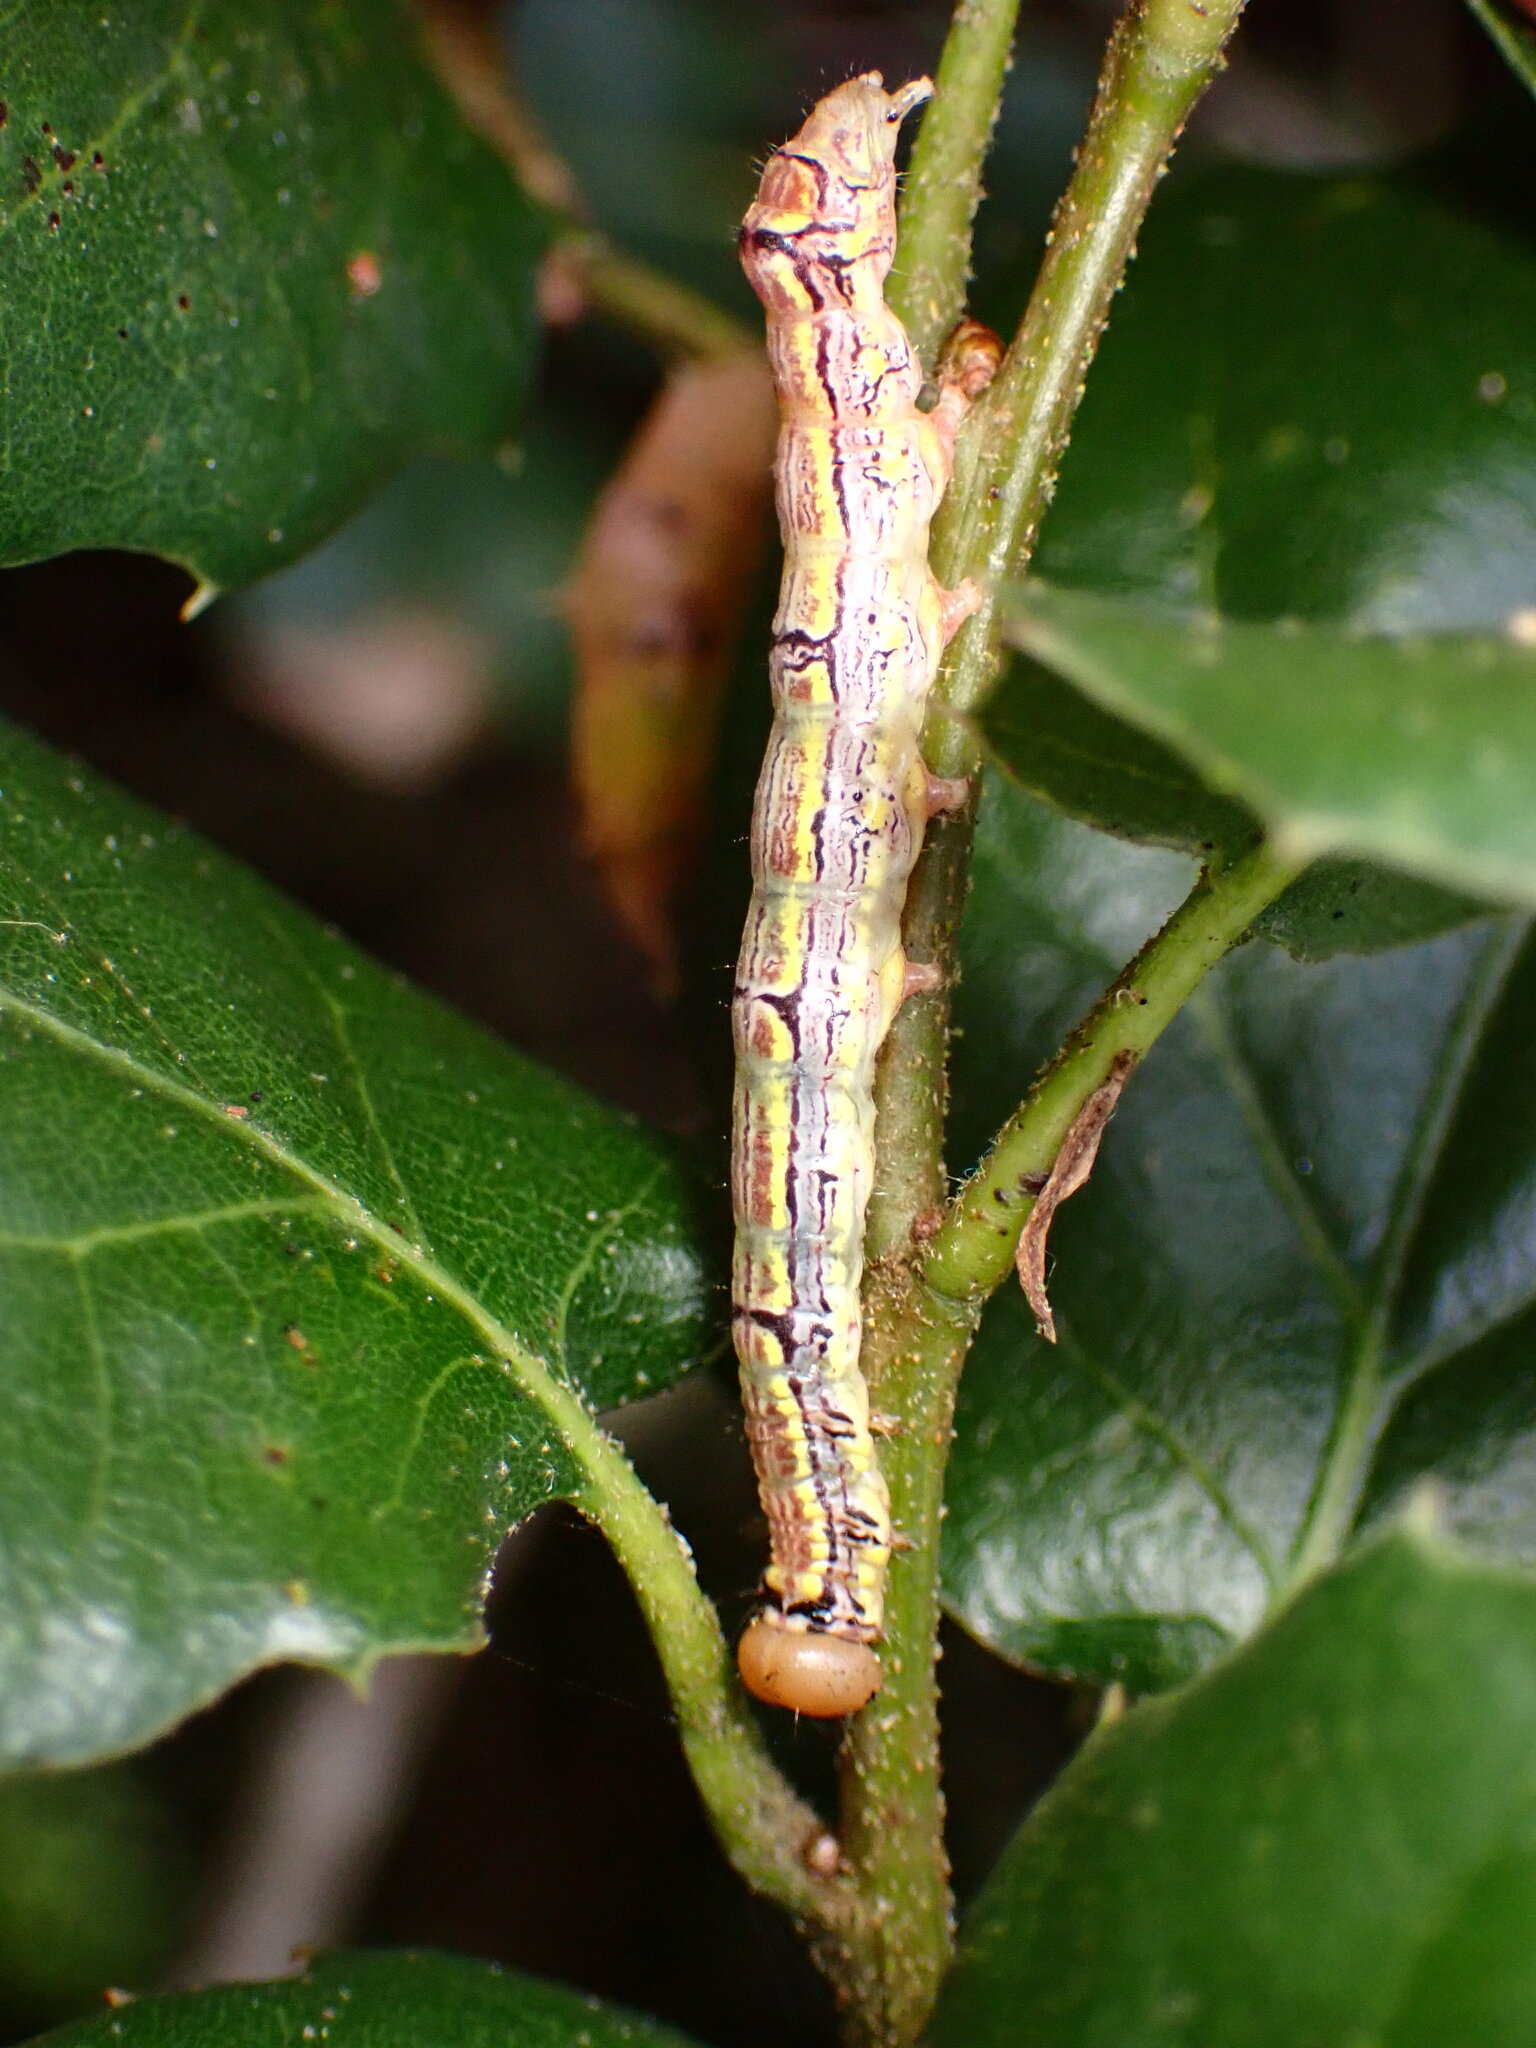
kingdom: Animalia
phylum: Arthropoda
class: Insecta
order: Lepidoptera
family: Notodontidae
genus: Phryganidia
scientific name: Phryganidia californica
